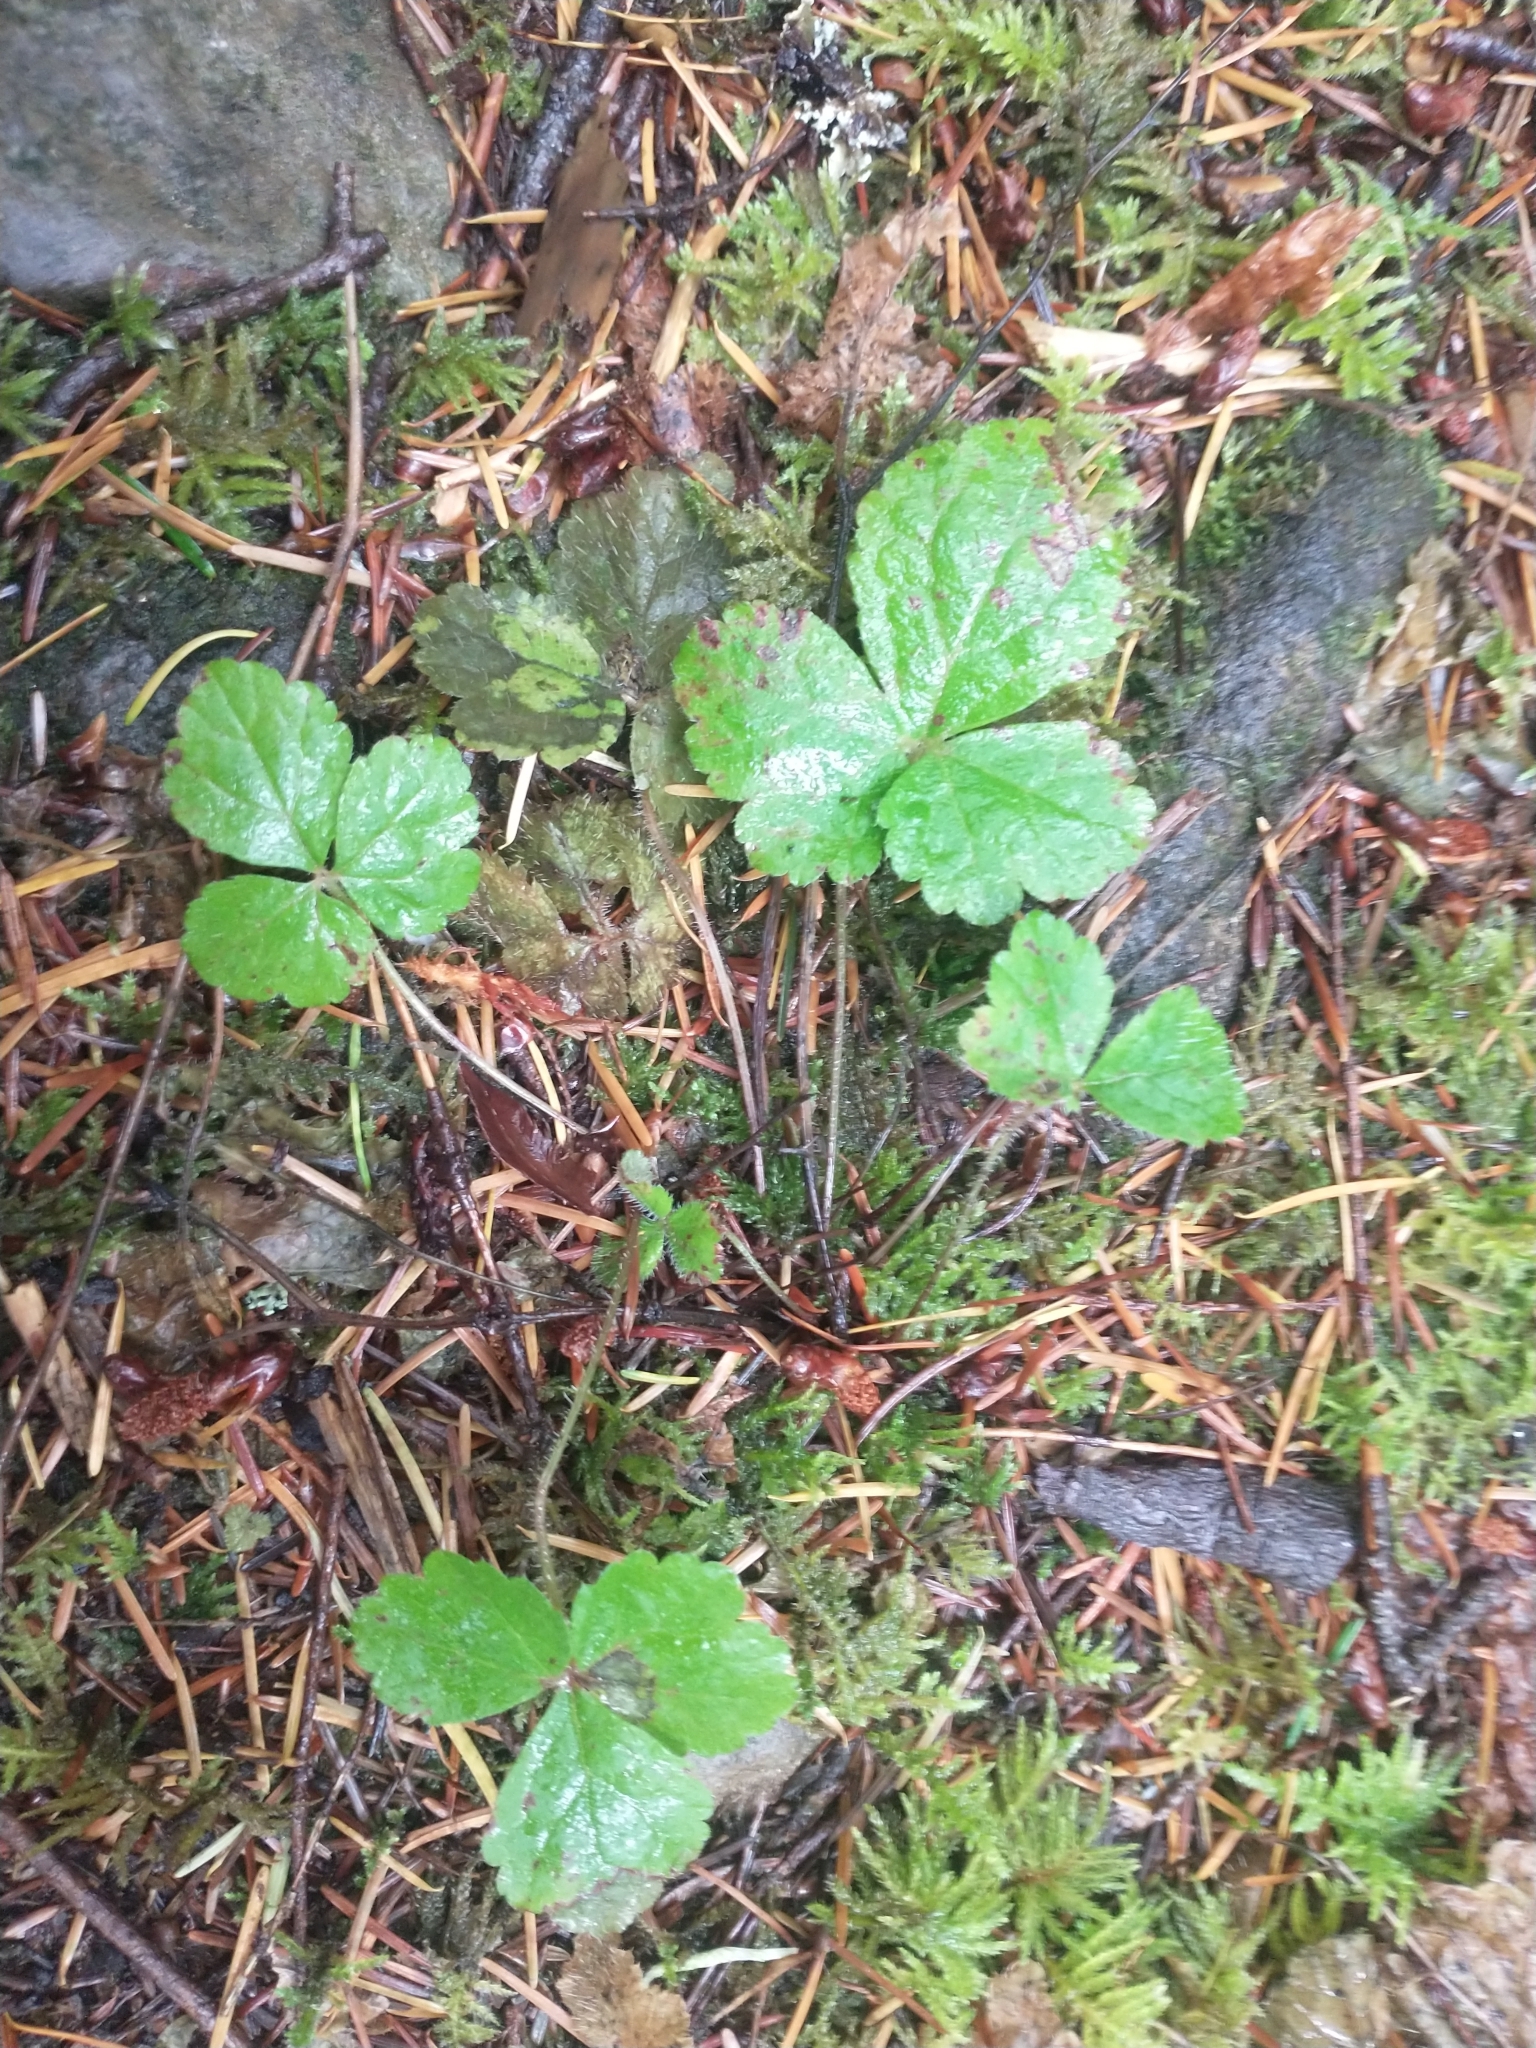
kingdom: Plantae
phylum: Tracheophyta
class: Magnoliopsida
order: Saxifragales
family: Saxifragaceae
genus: Tiarella
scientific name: Tiarella trifoliata
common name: Sugar-scoop
